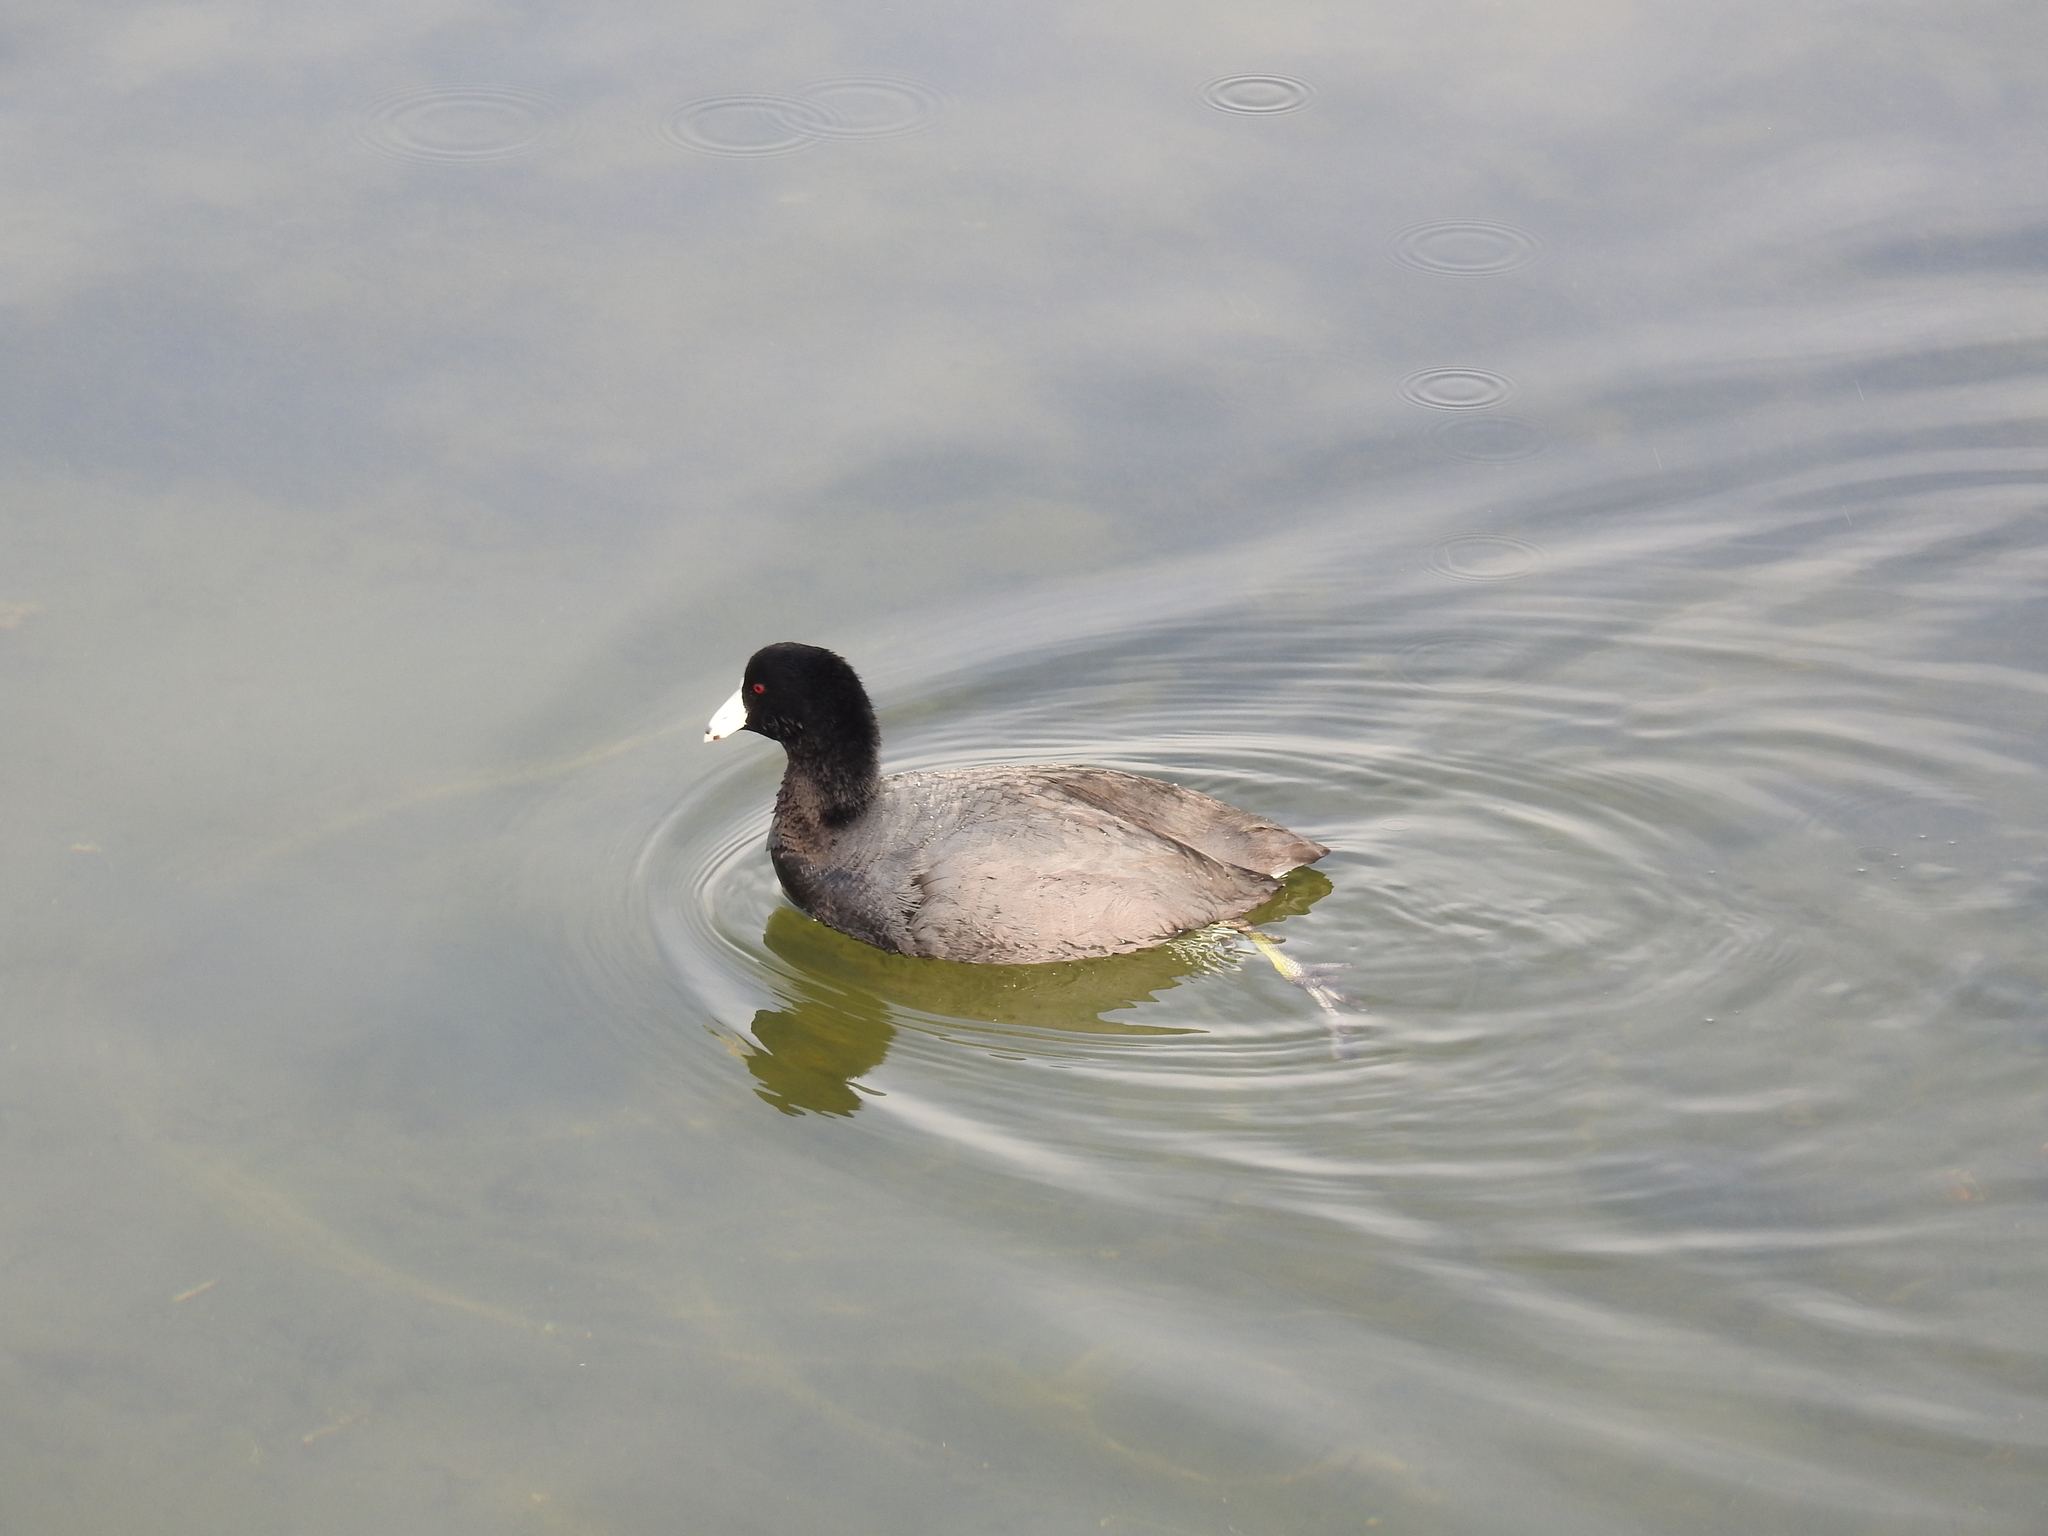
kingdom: Animalia
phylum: Chordata
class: Aves
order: Gruiformes
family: Rallidae
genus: Fulica
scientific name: Fulica americana
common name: American coot
